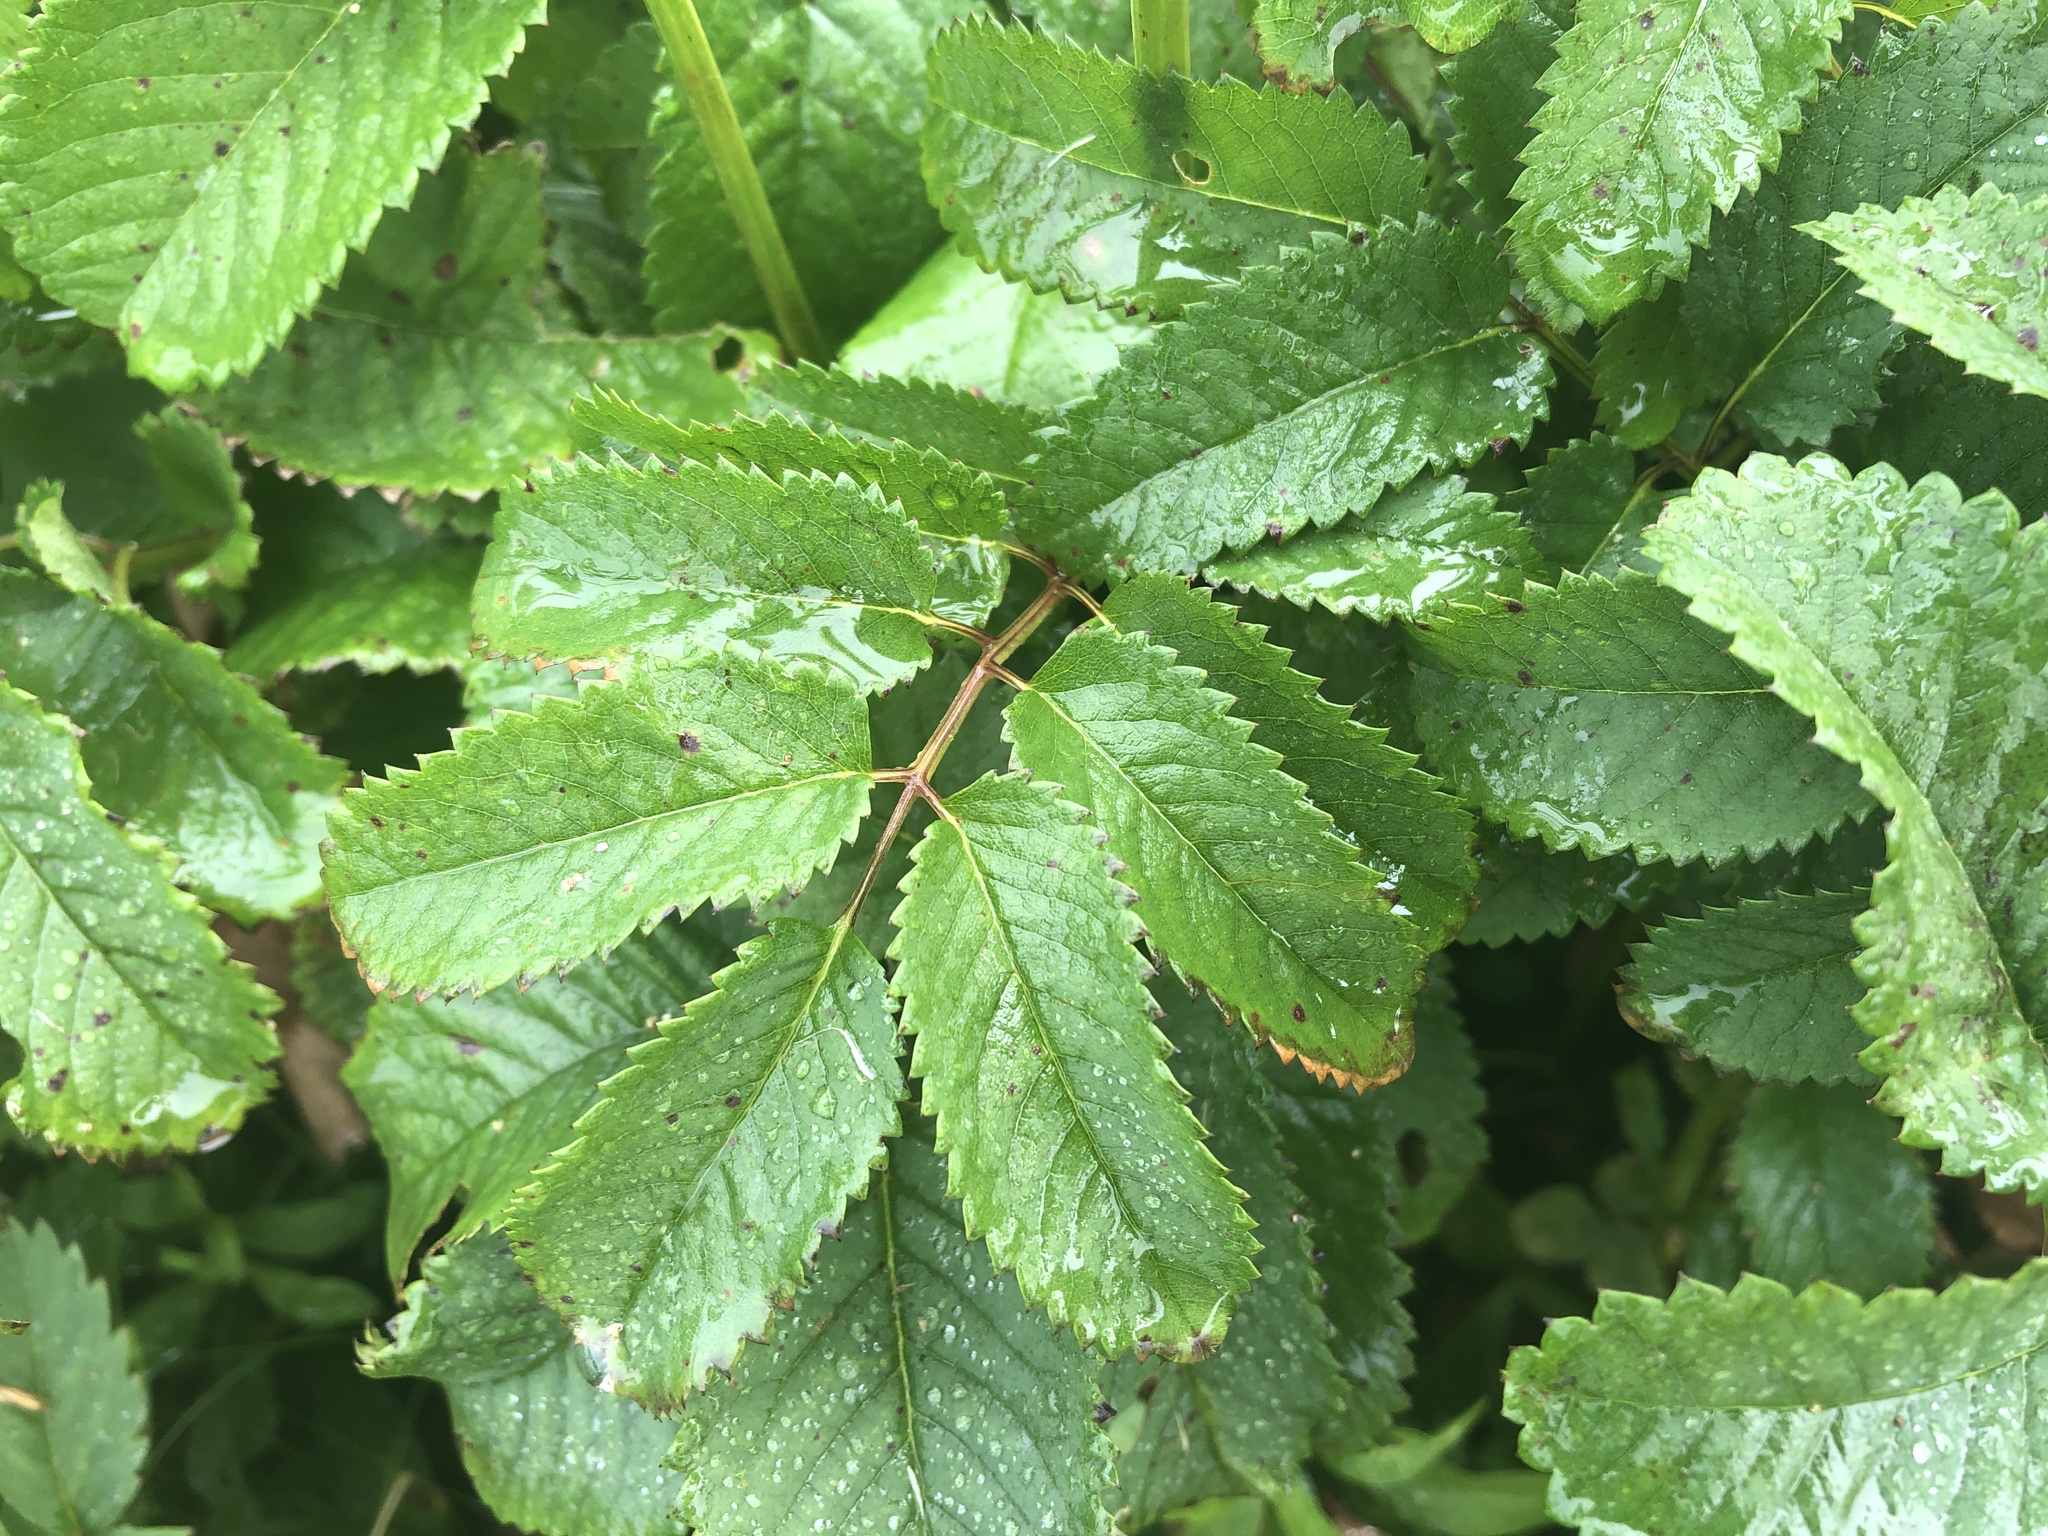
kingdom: Plantae
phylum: Tracheophyta
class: Magnoliopsida
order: Rosales
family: Rosaceae
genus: Sanguisorba
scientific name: Sanguisorba canadensis
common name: White burnet
